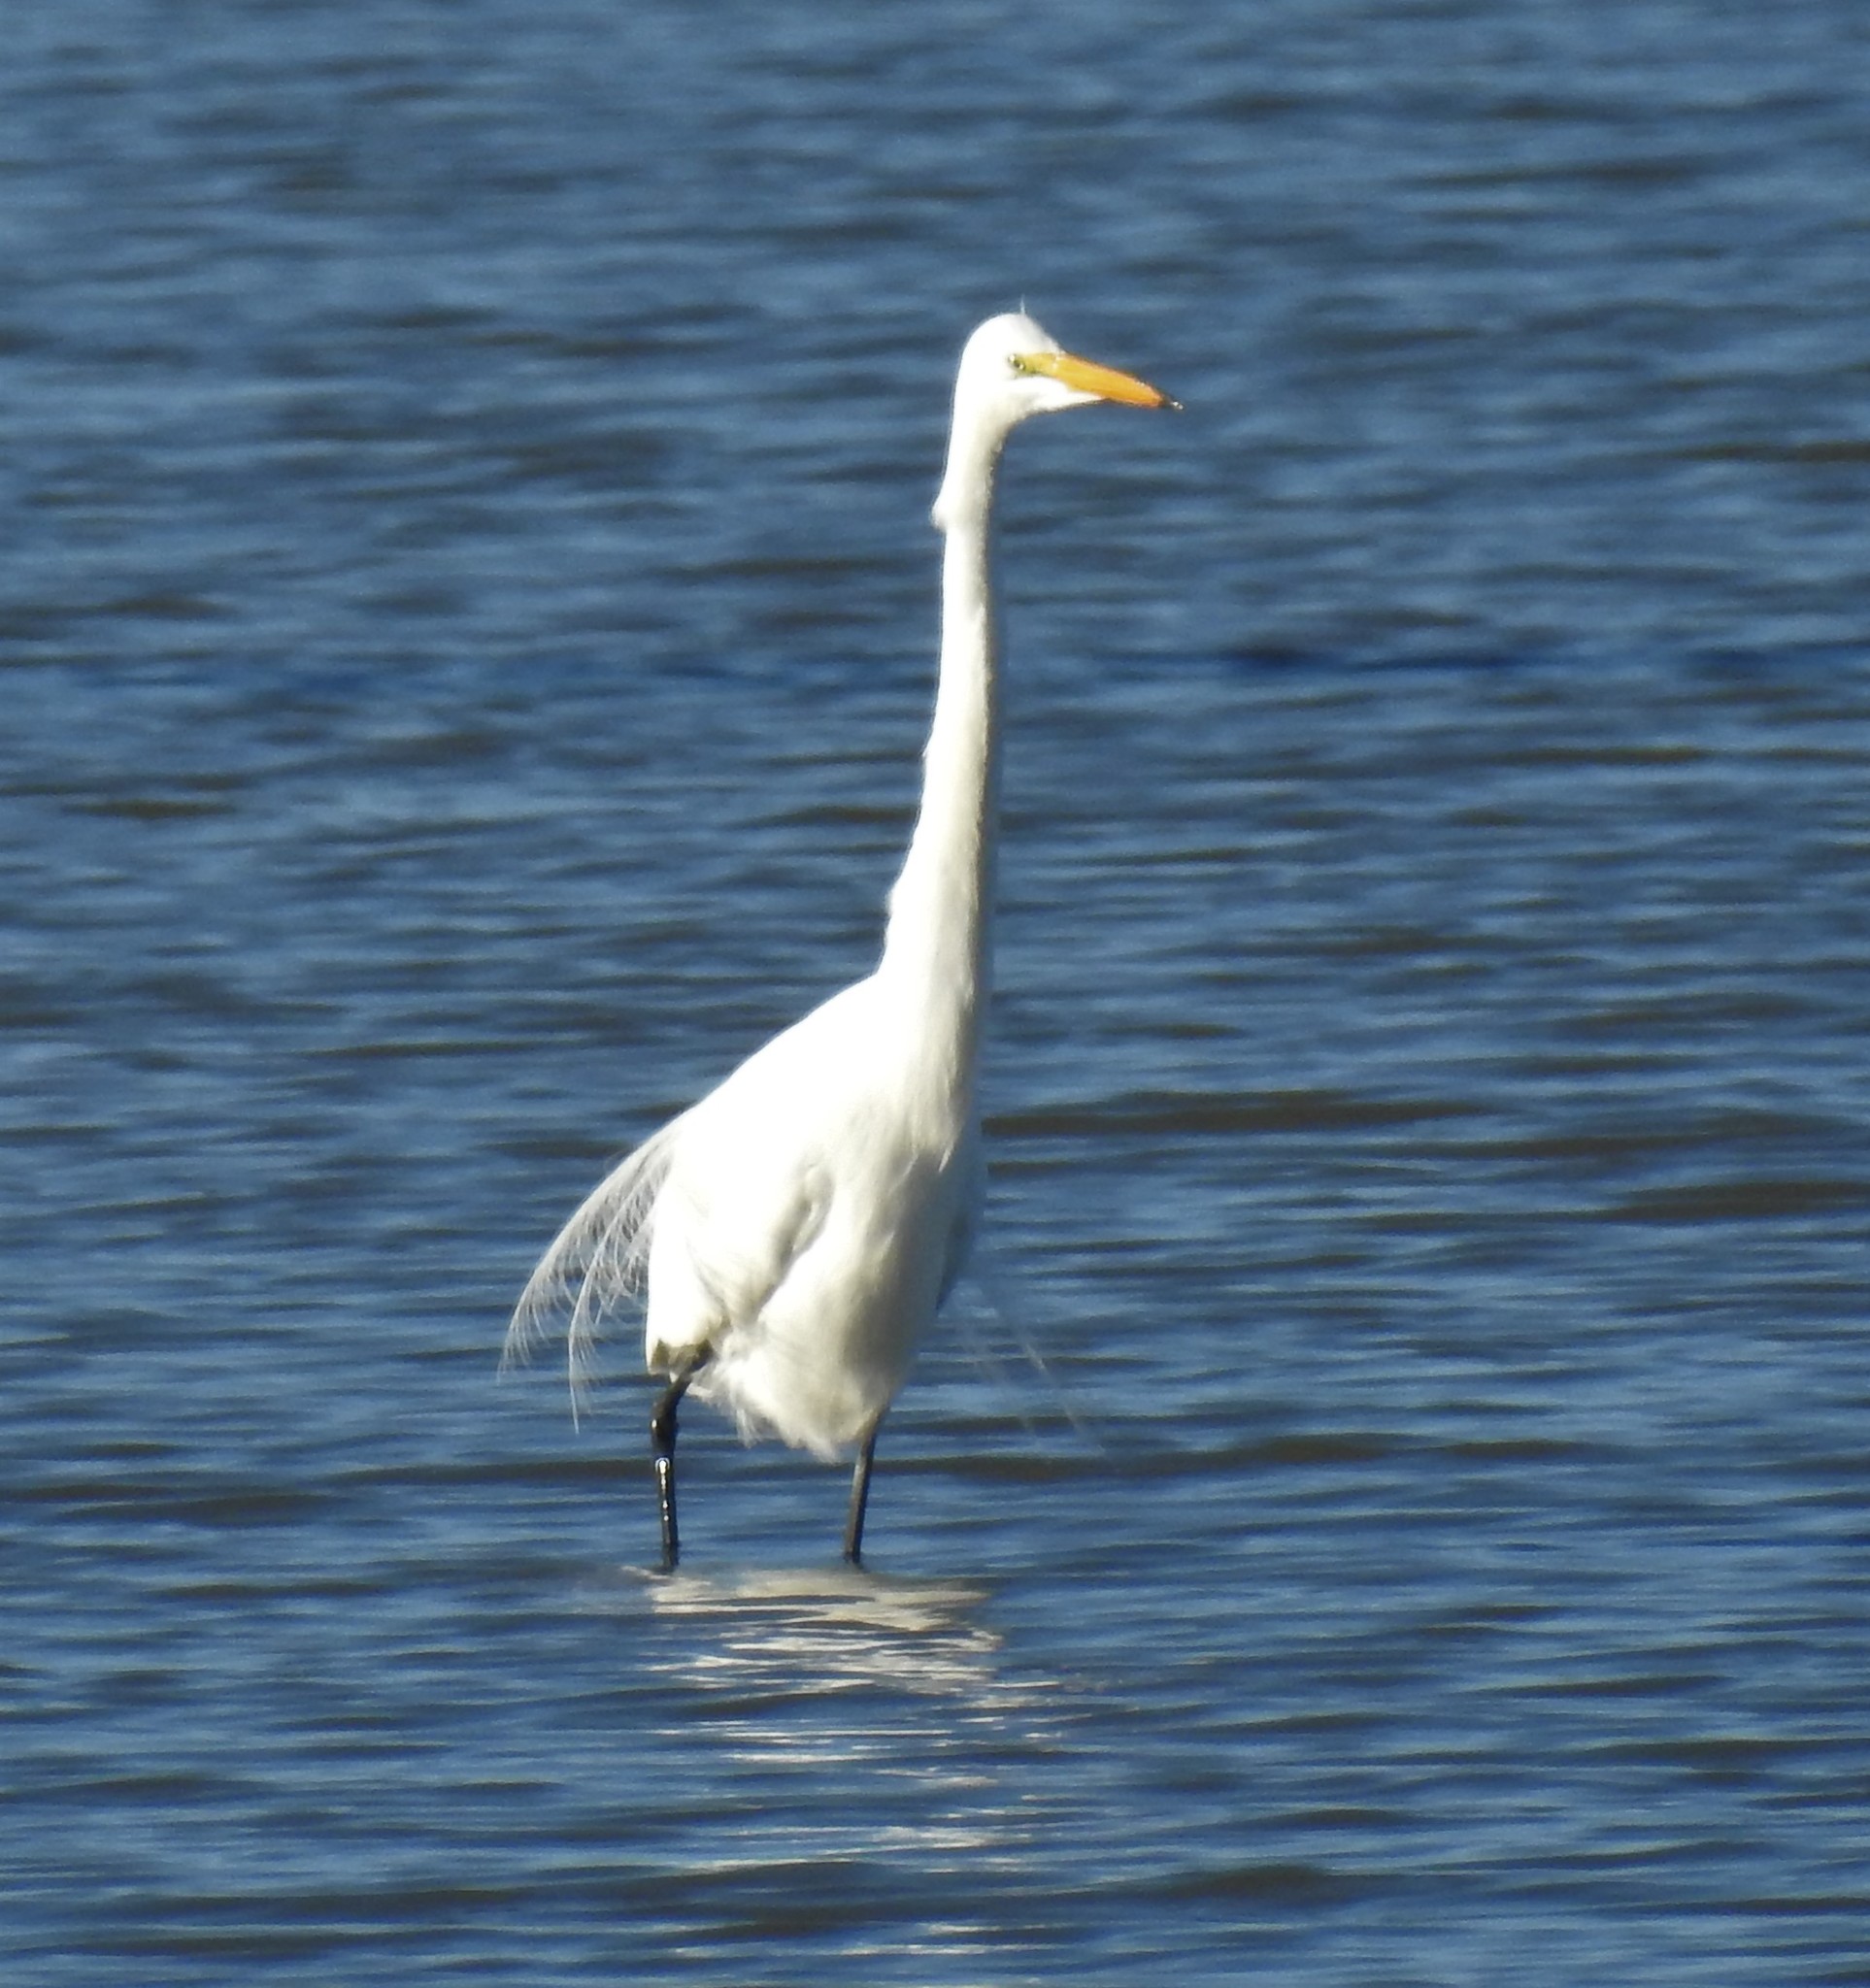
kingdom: Animalia
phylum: Chordata
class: Aves
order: Pelecaniformes
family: Ardeidae
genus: Ardea
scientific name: Ardea alba
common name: Great egret
